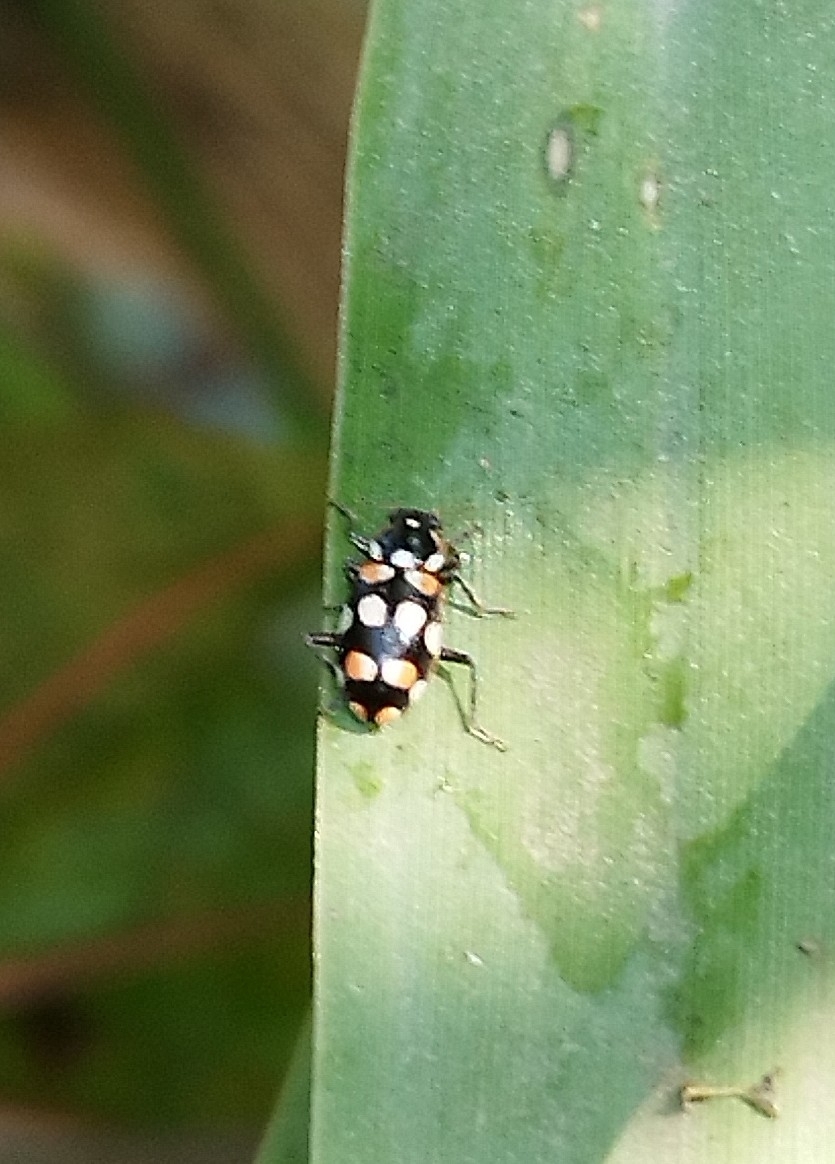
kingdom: Animalia
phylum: Arthropoda
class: Insecta
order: Coleoptera
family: Coccinellidae
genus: Eriopis
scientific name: Eriopis connexa
